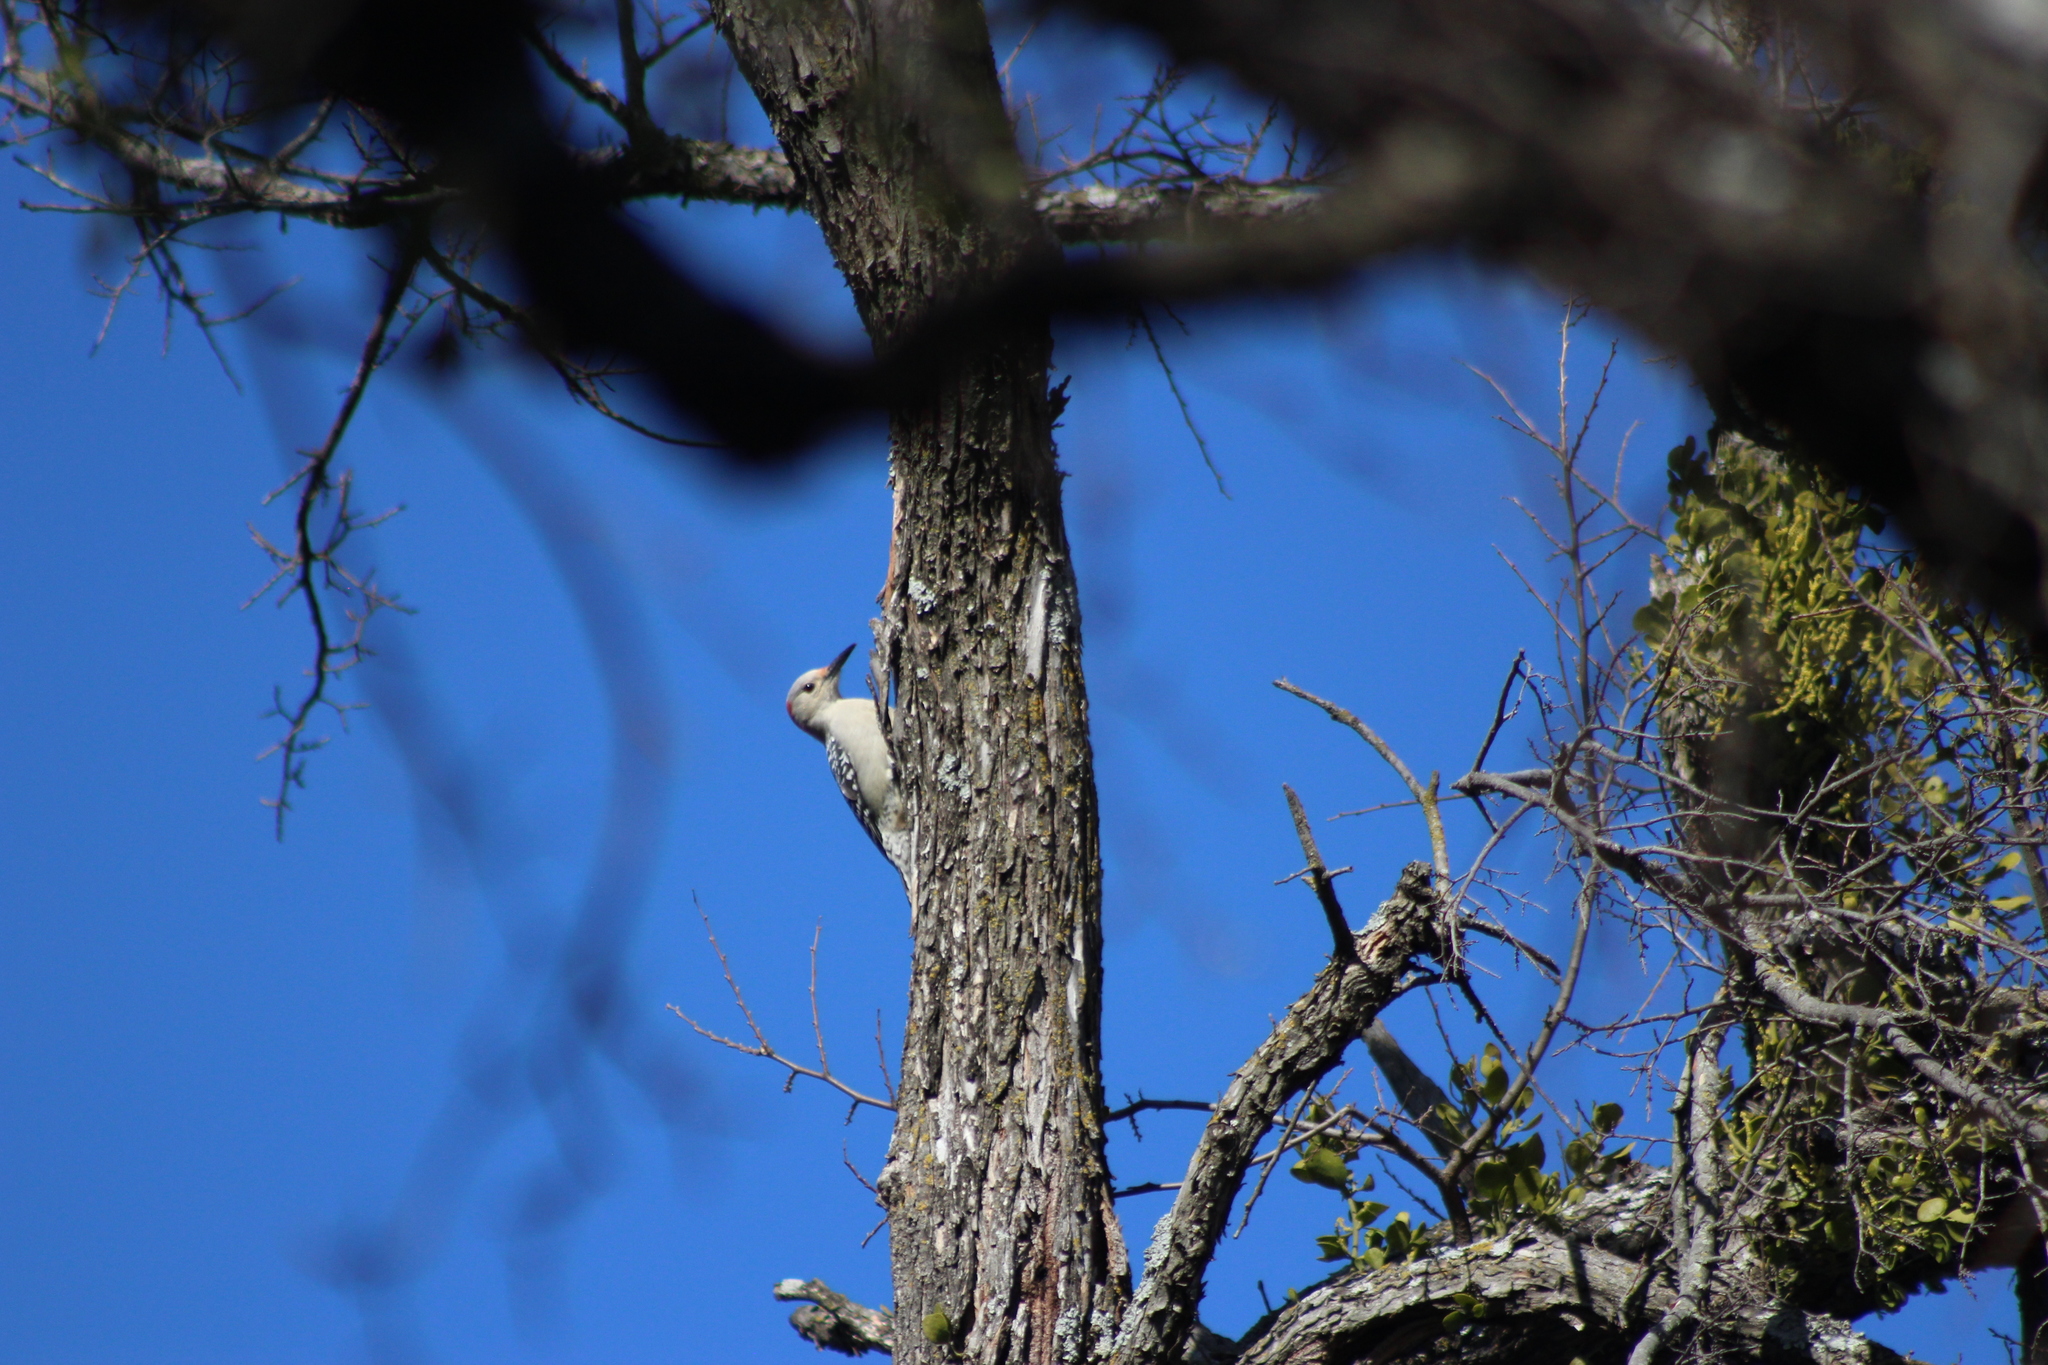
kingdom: Animalia
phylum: Chordata
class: Aves
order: Piciformes
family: Picidae
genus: Melanerpes
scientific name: Melanerpes carolinus
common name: Red-bellied woodpecker
